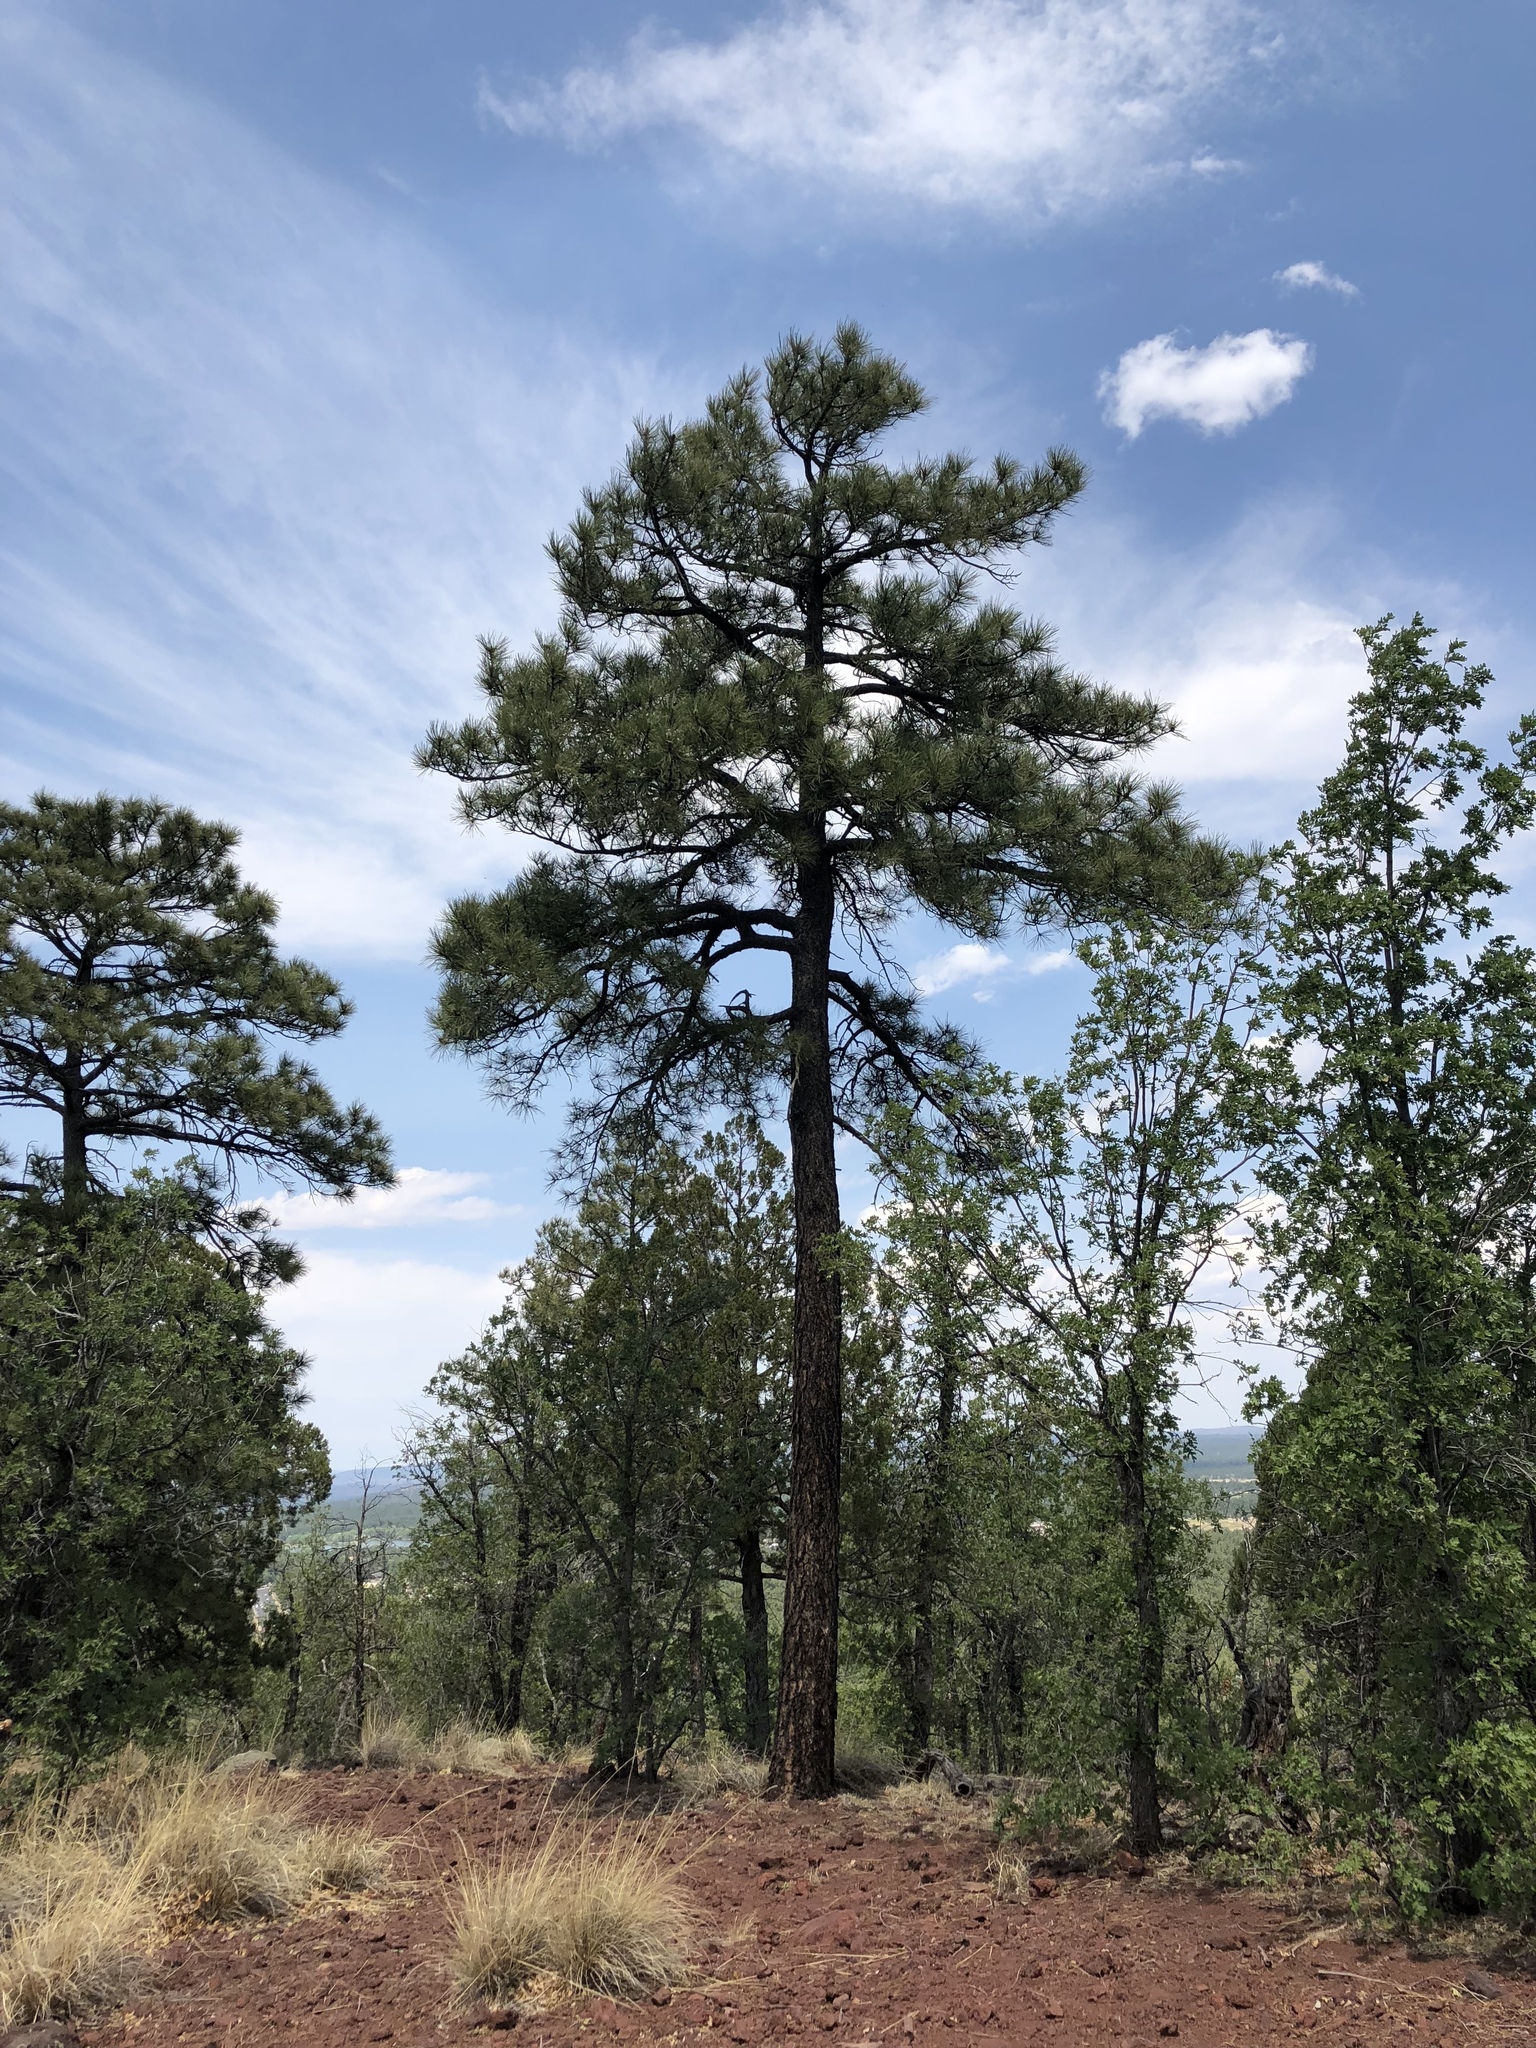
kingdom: Plantae
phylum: Tracheophyta
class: Pinopsida
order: Pinales
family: Pinaceae
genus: Pinus
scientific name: Pinus ponderosa
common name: Western yellow-pine
